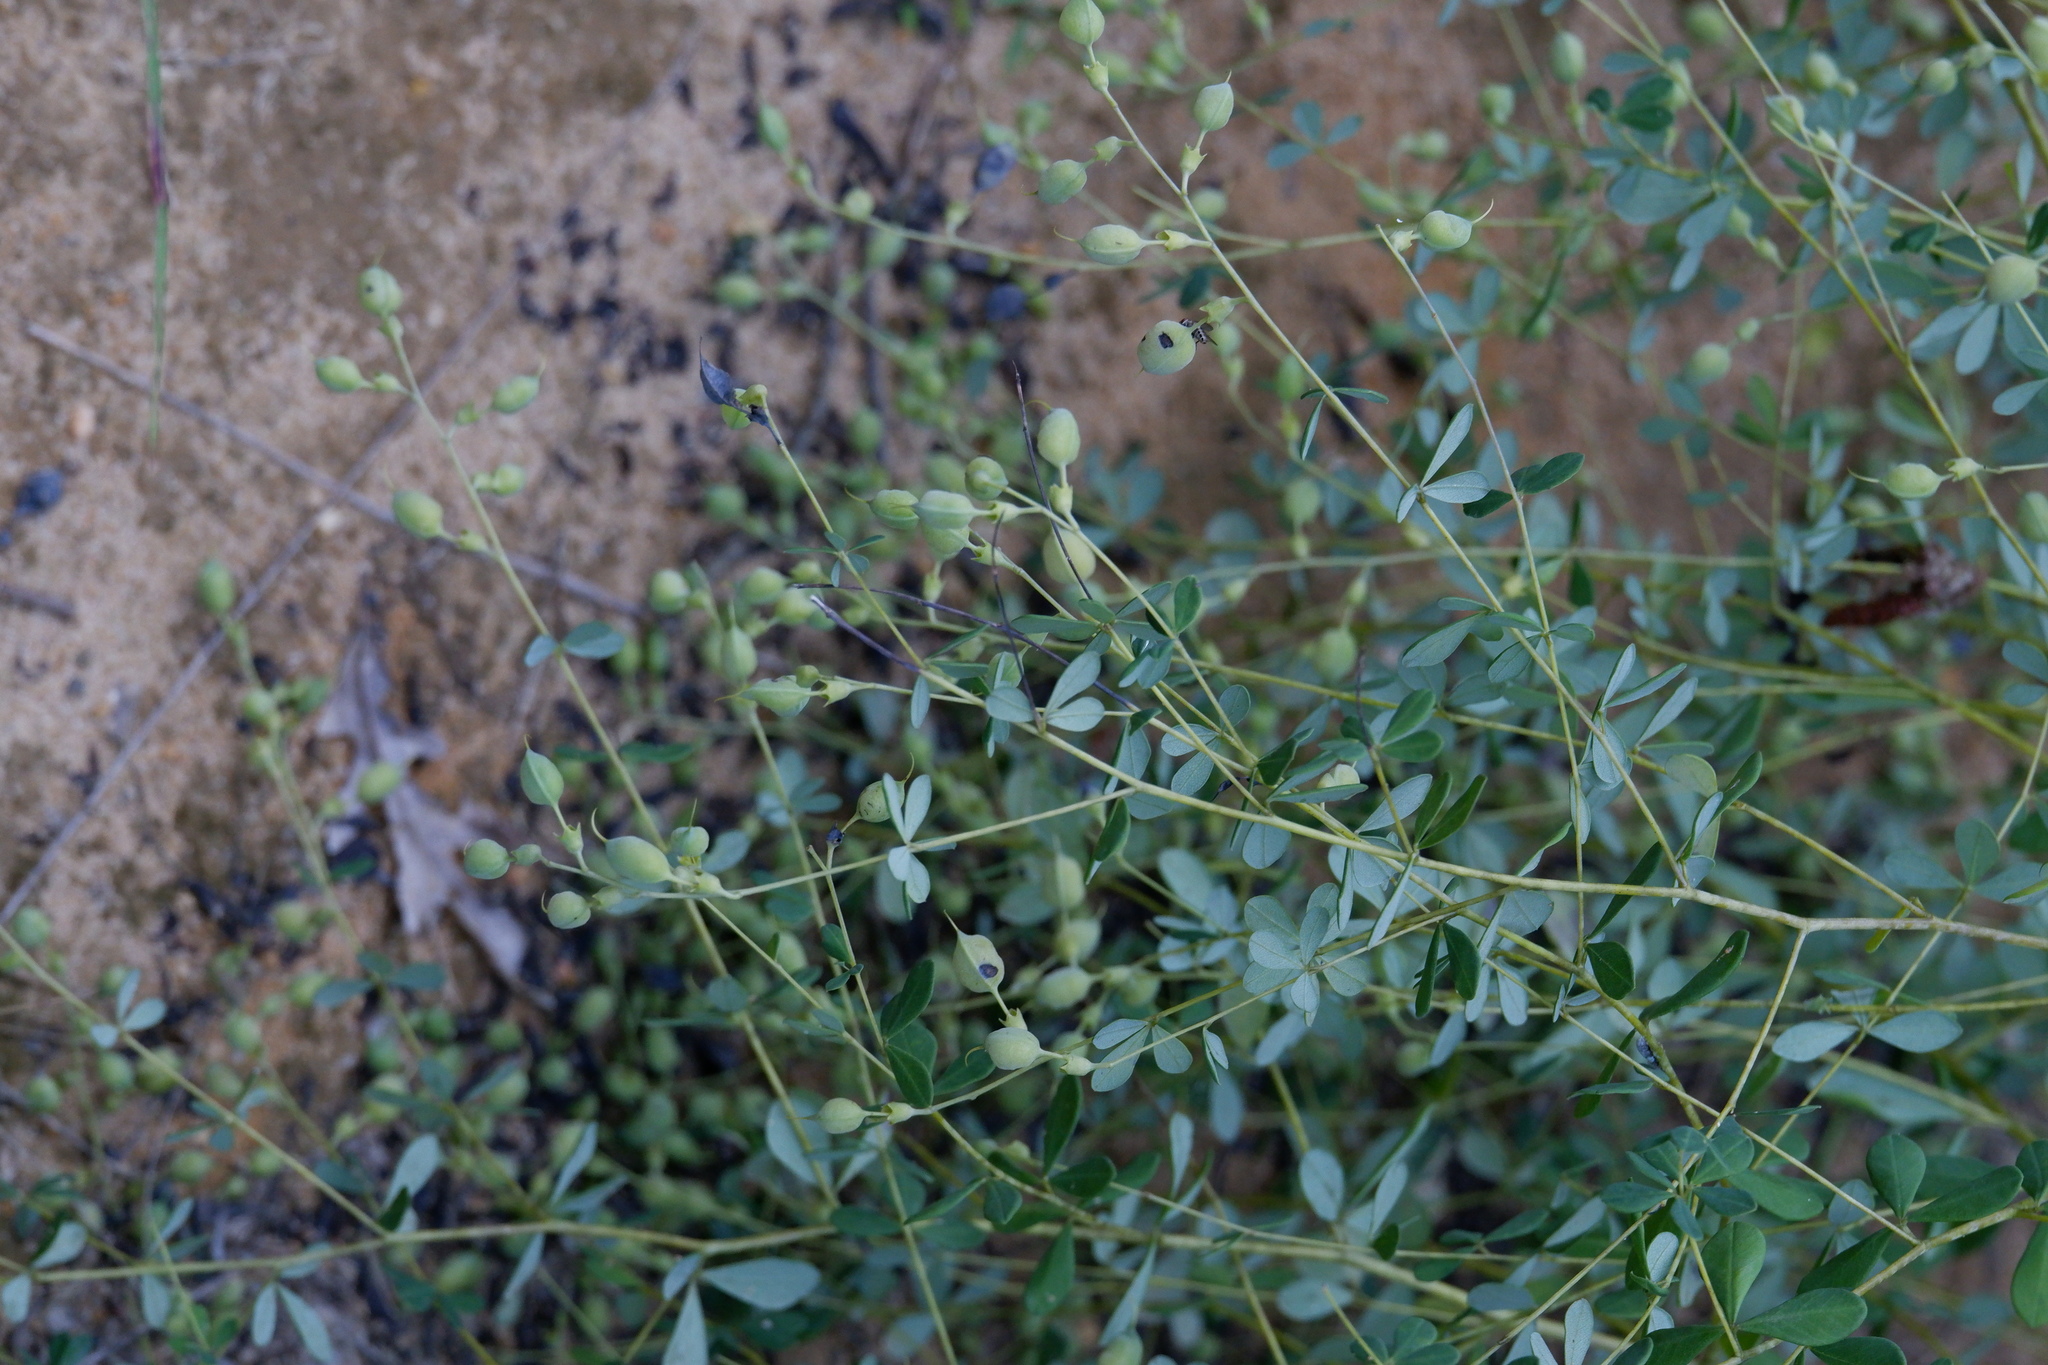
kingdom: Plantae
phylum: Tracheophyta
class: Magnoliopsida
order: Fabales
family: Fabaceae
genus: Baptisia
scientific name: Baptisia tinctoria
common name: Wild indigo
